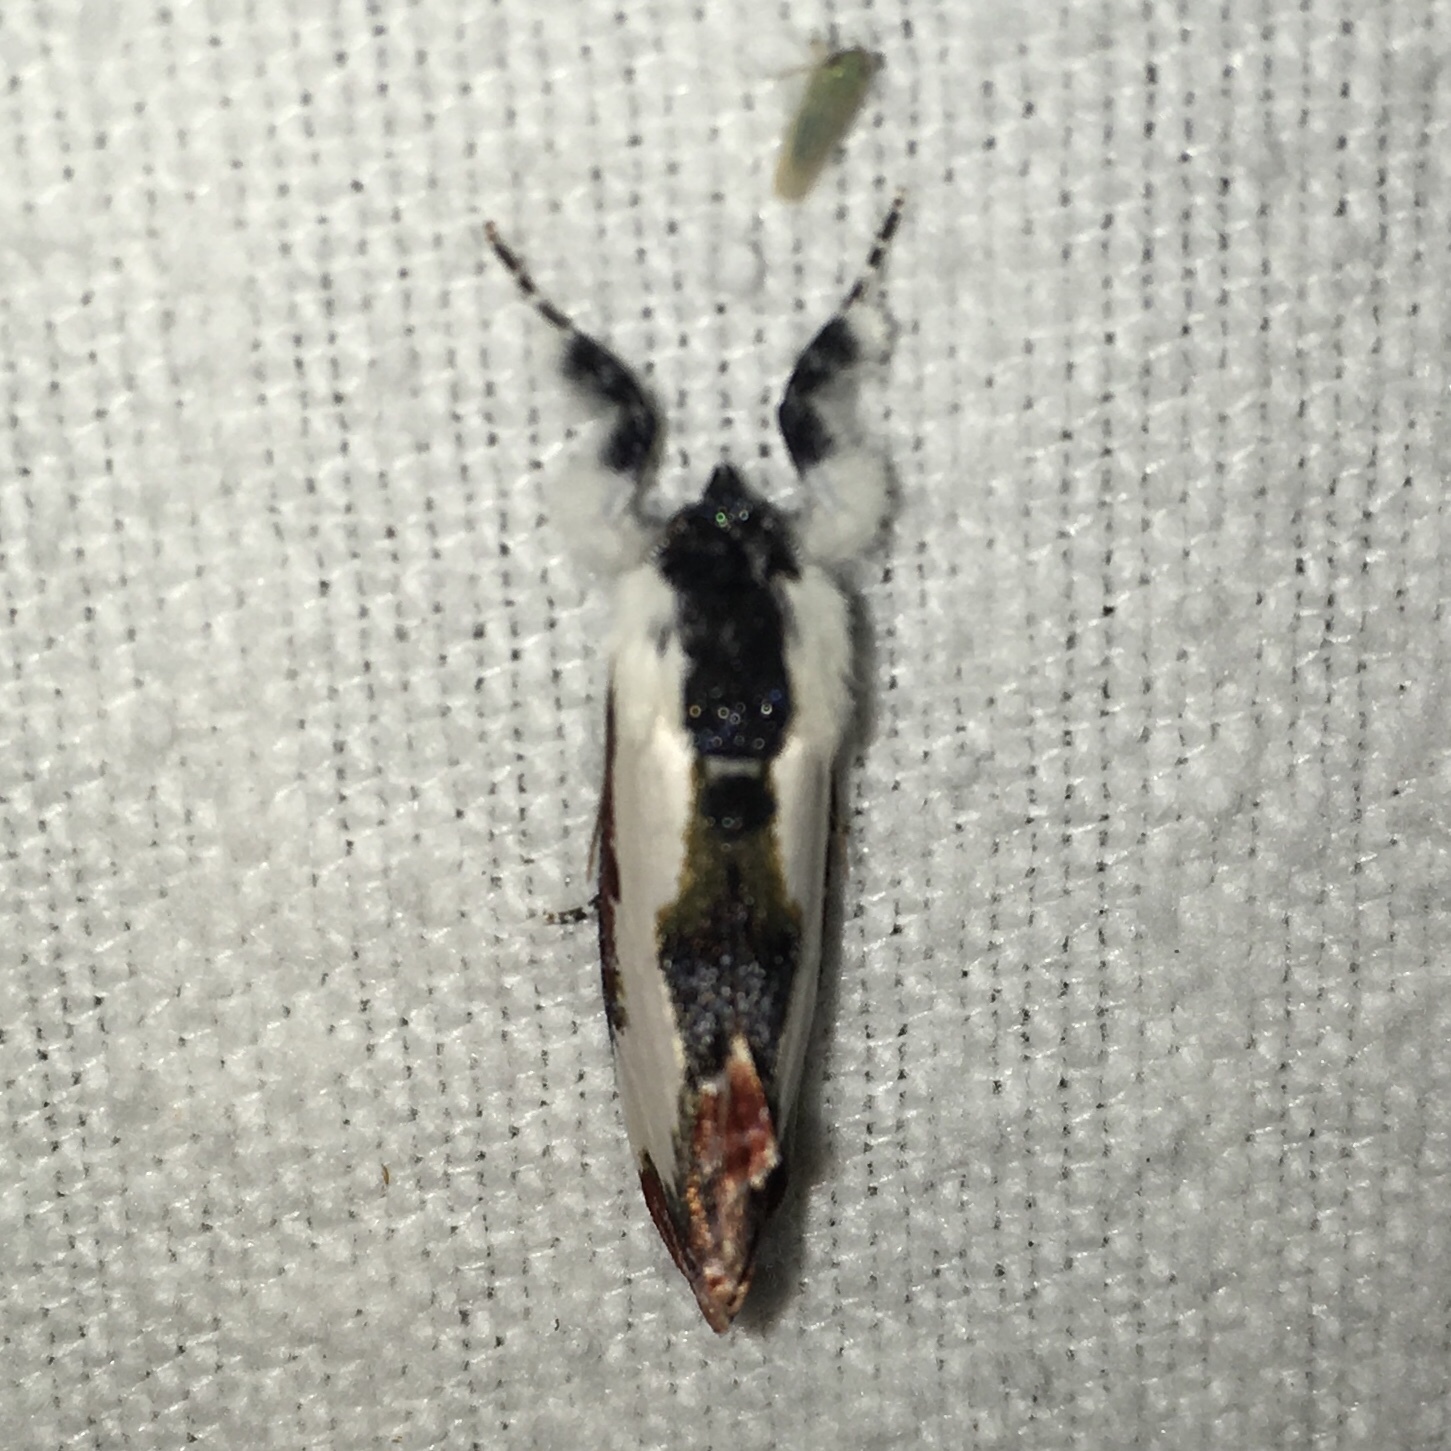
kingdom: Animalia
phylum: Arthropoda
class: Insecta
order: Lepidoptera
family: Noctuidae
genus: Eudryas
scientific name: Eudryas unio
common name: Pearly wood-nymph
